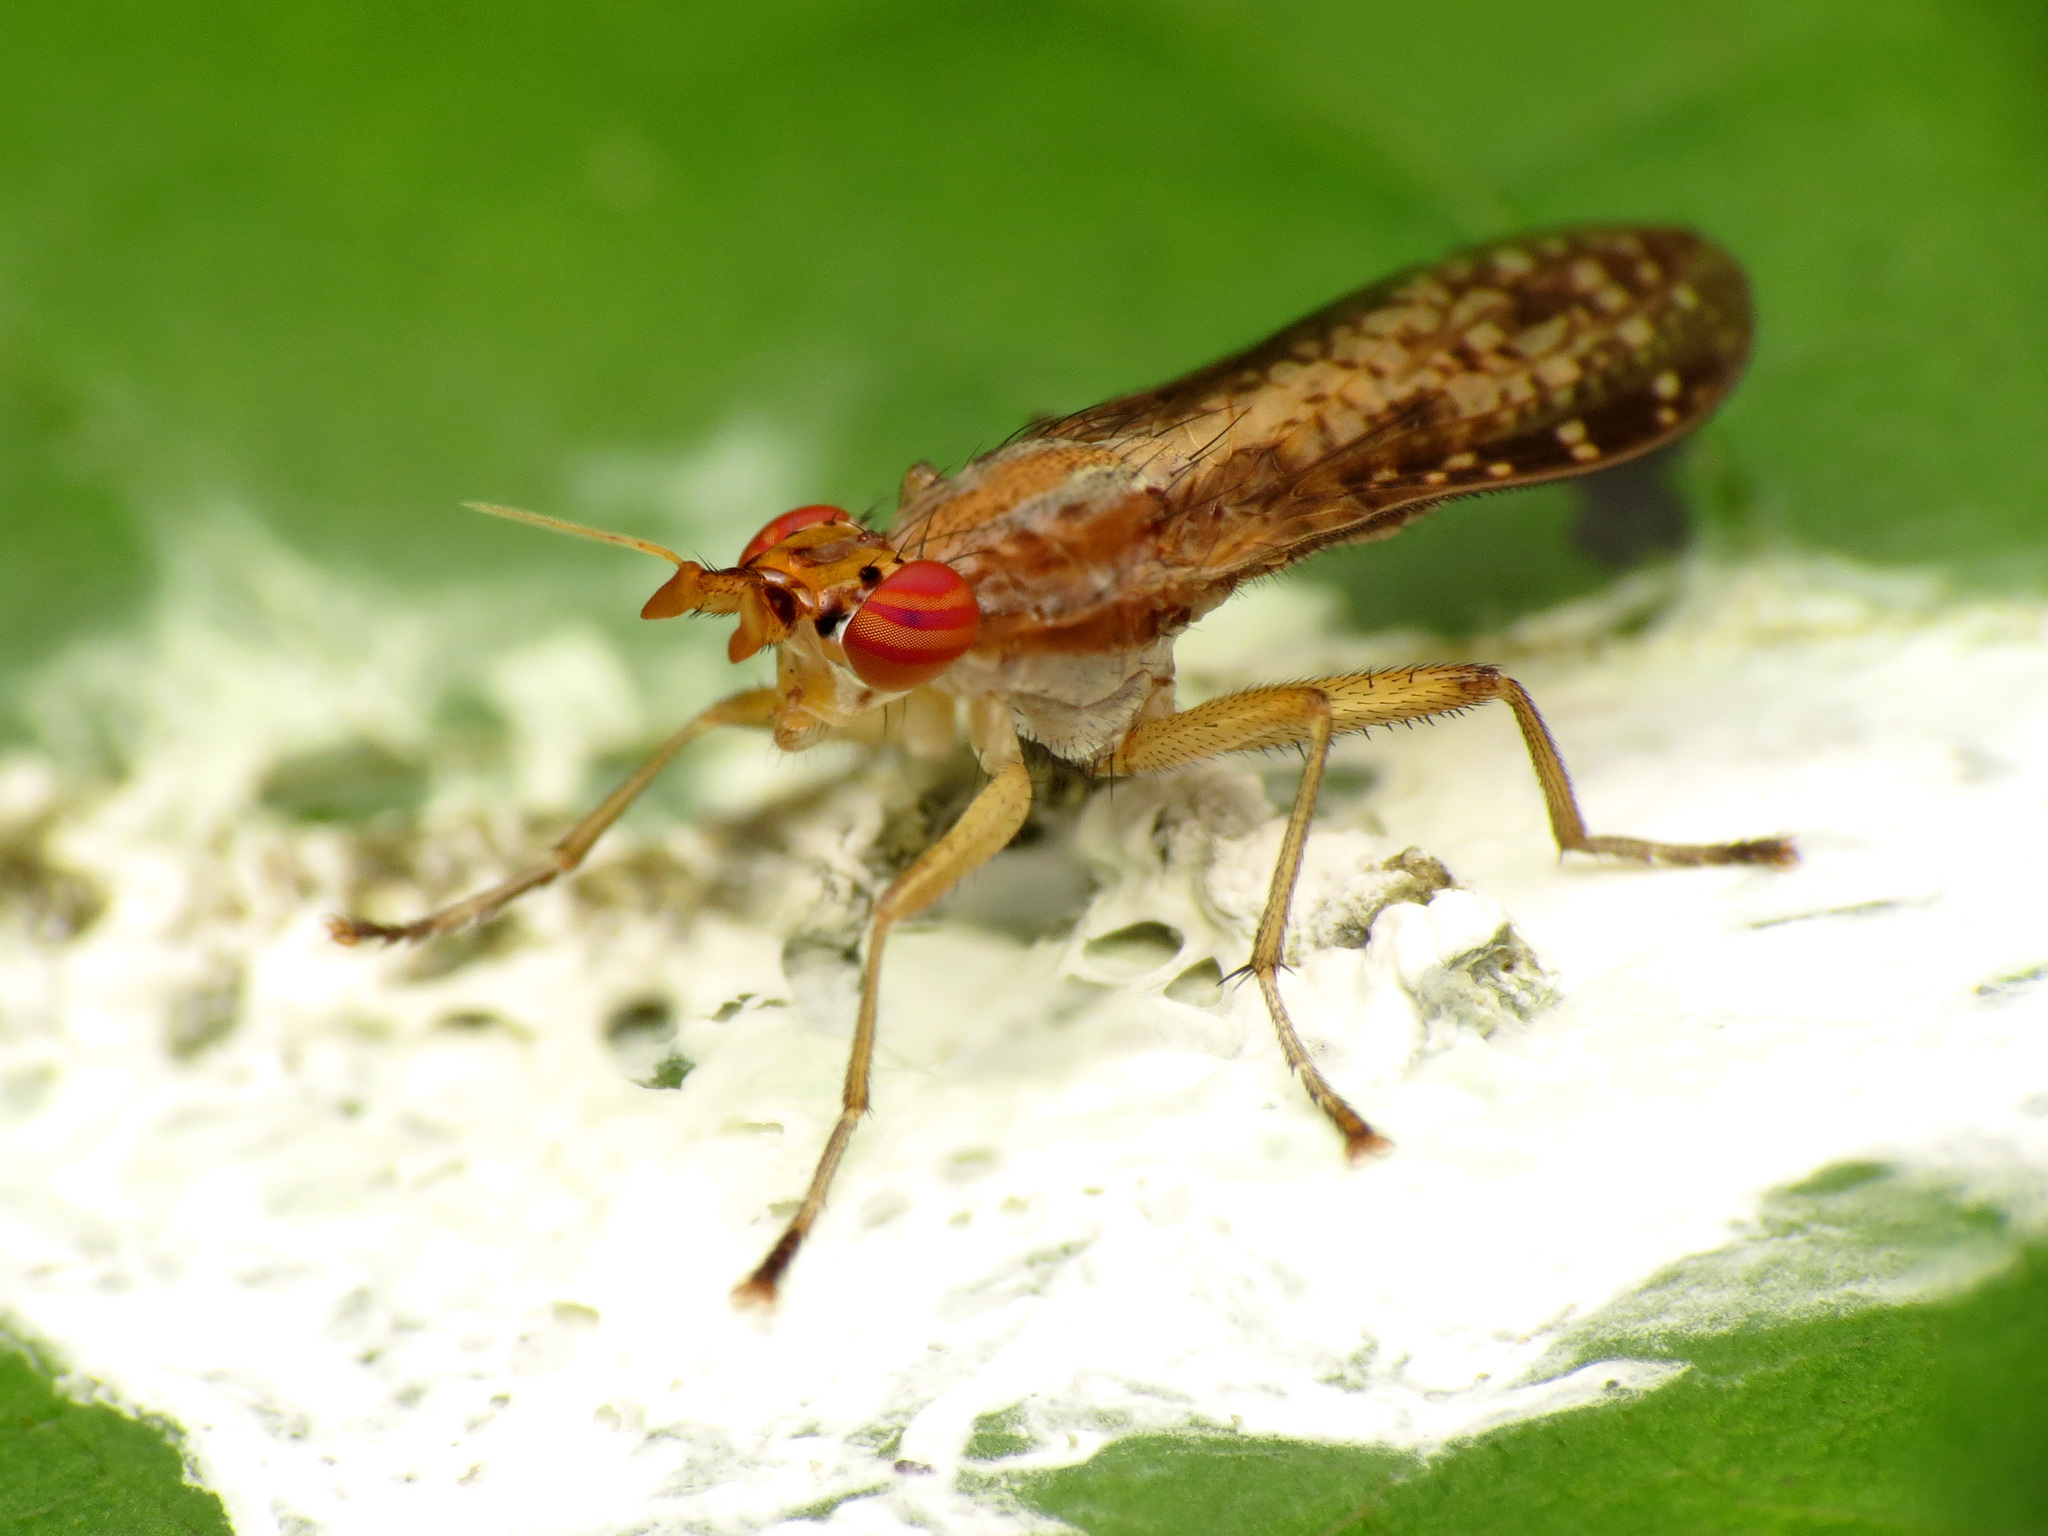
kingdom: Animalia
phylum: Arthropoda
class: Insecta
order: Diptera
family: Sciomyzidae
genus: Limnia
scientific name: Limnia shannoni
